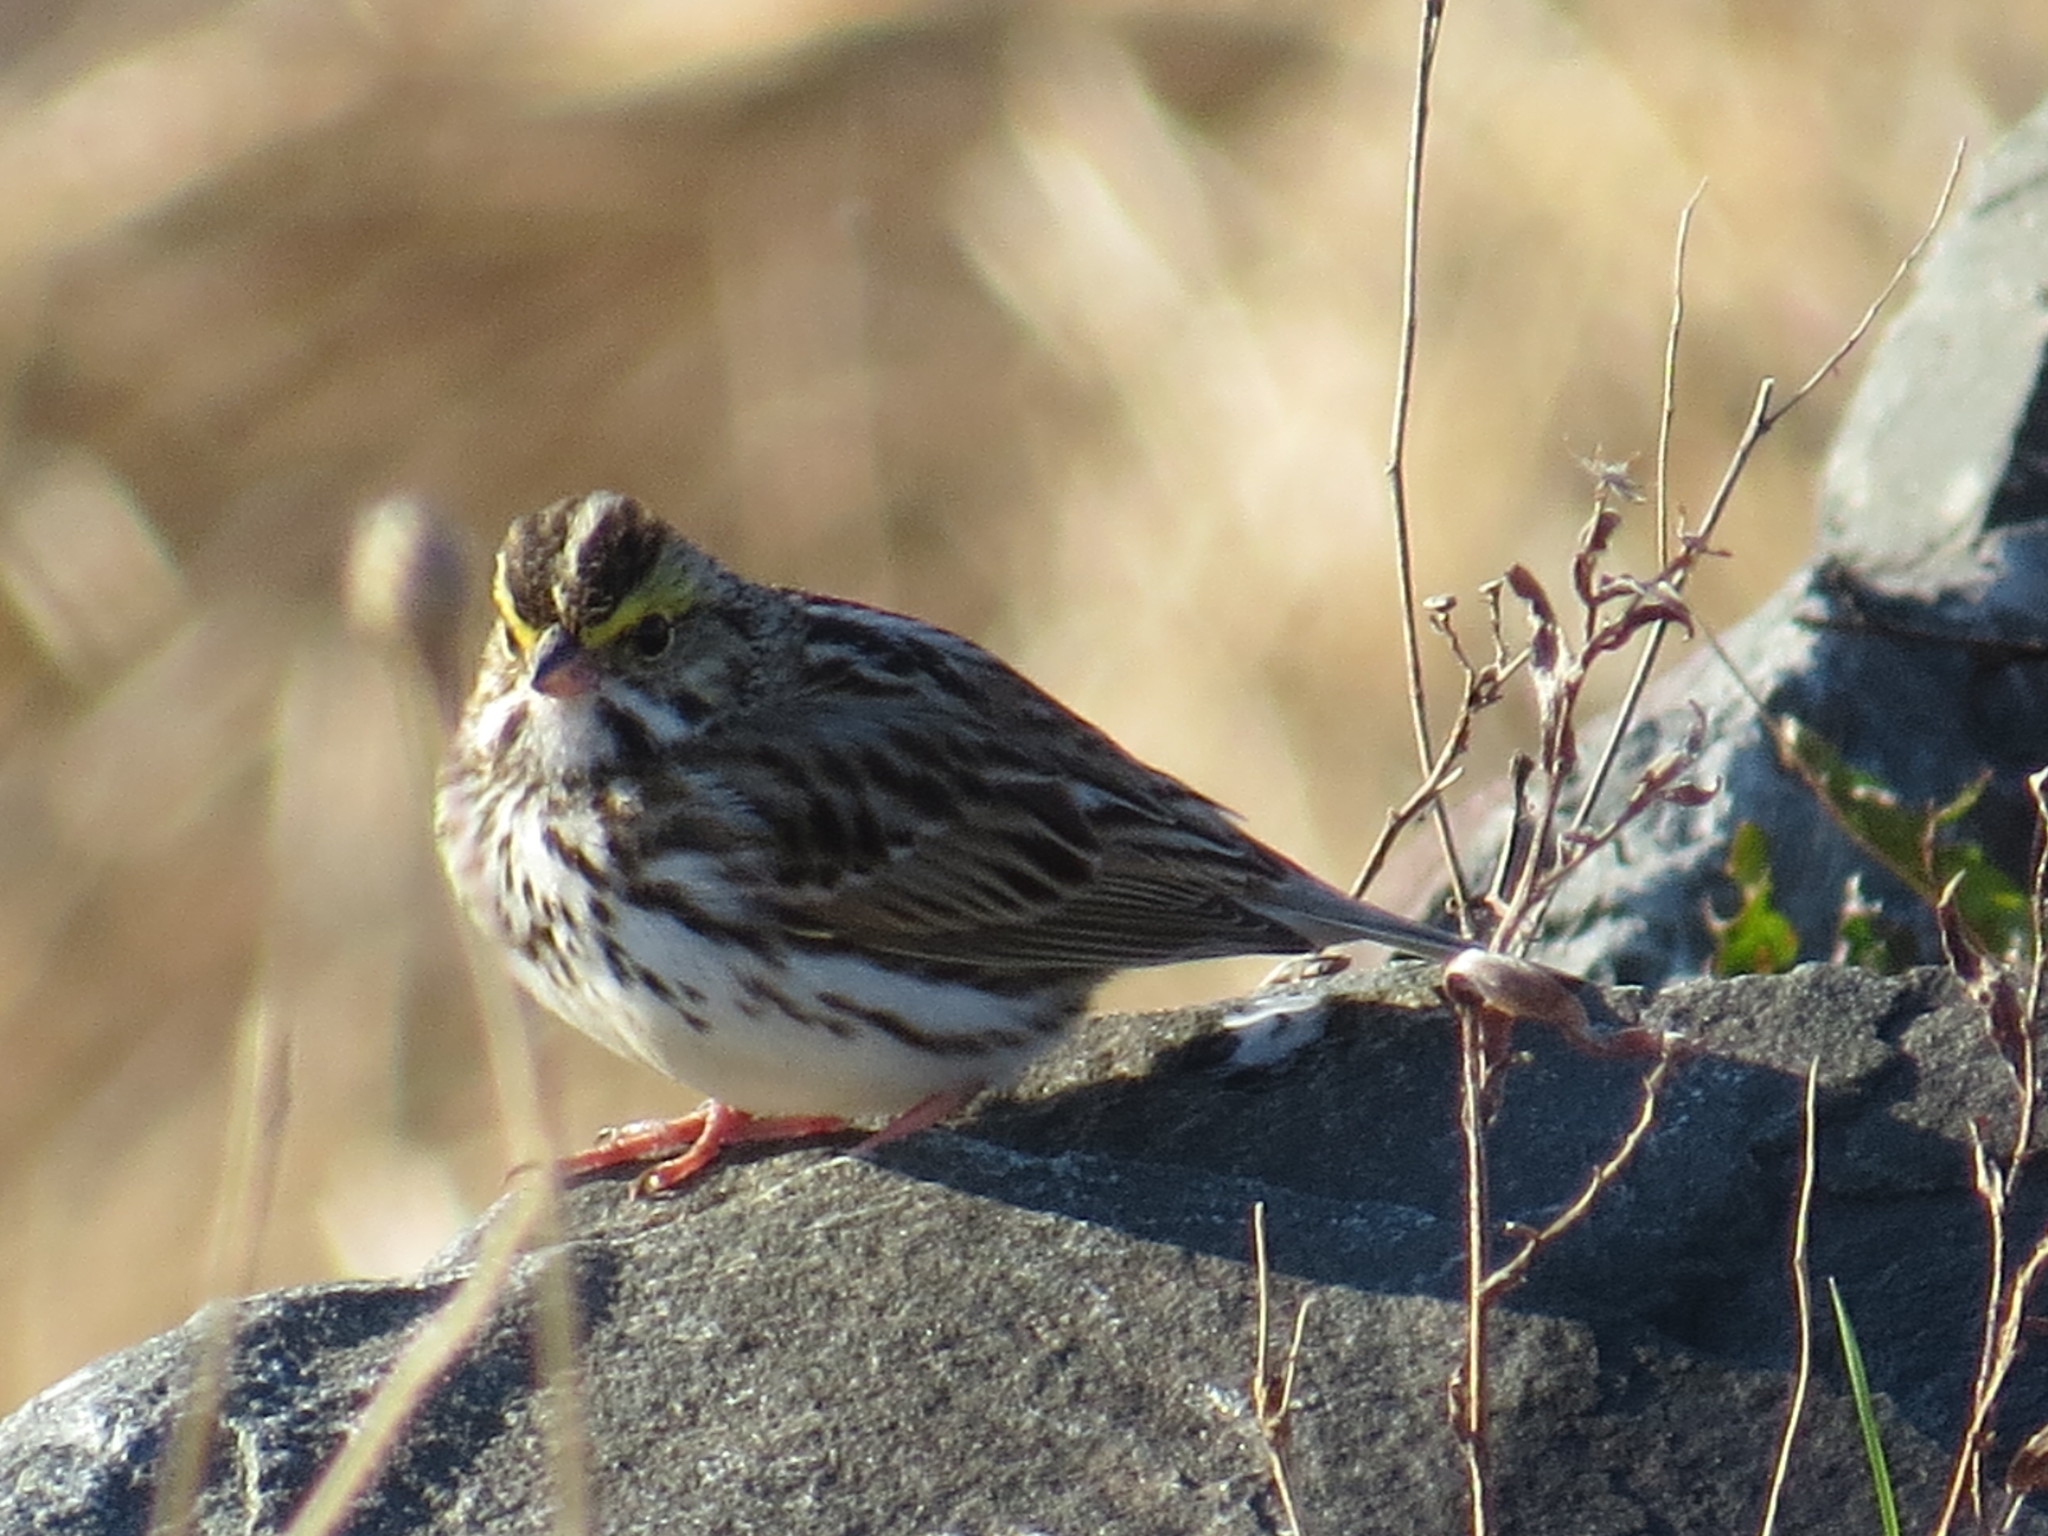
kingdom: Animalia
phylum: Chordata
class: Aves
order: Passeriformes
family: Passerellidae
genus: Passerculus
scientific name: Passerculus sandwichensis
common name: Savannah sparrow
